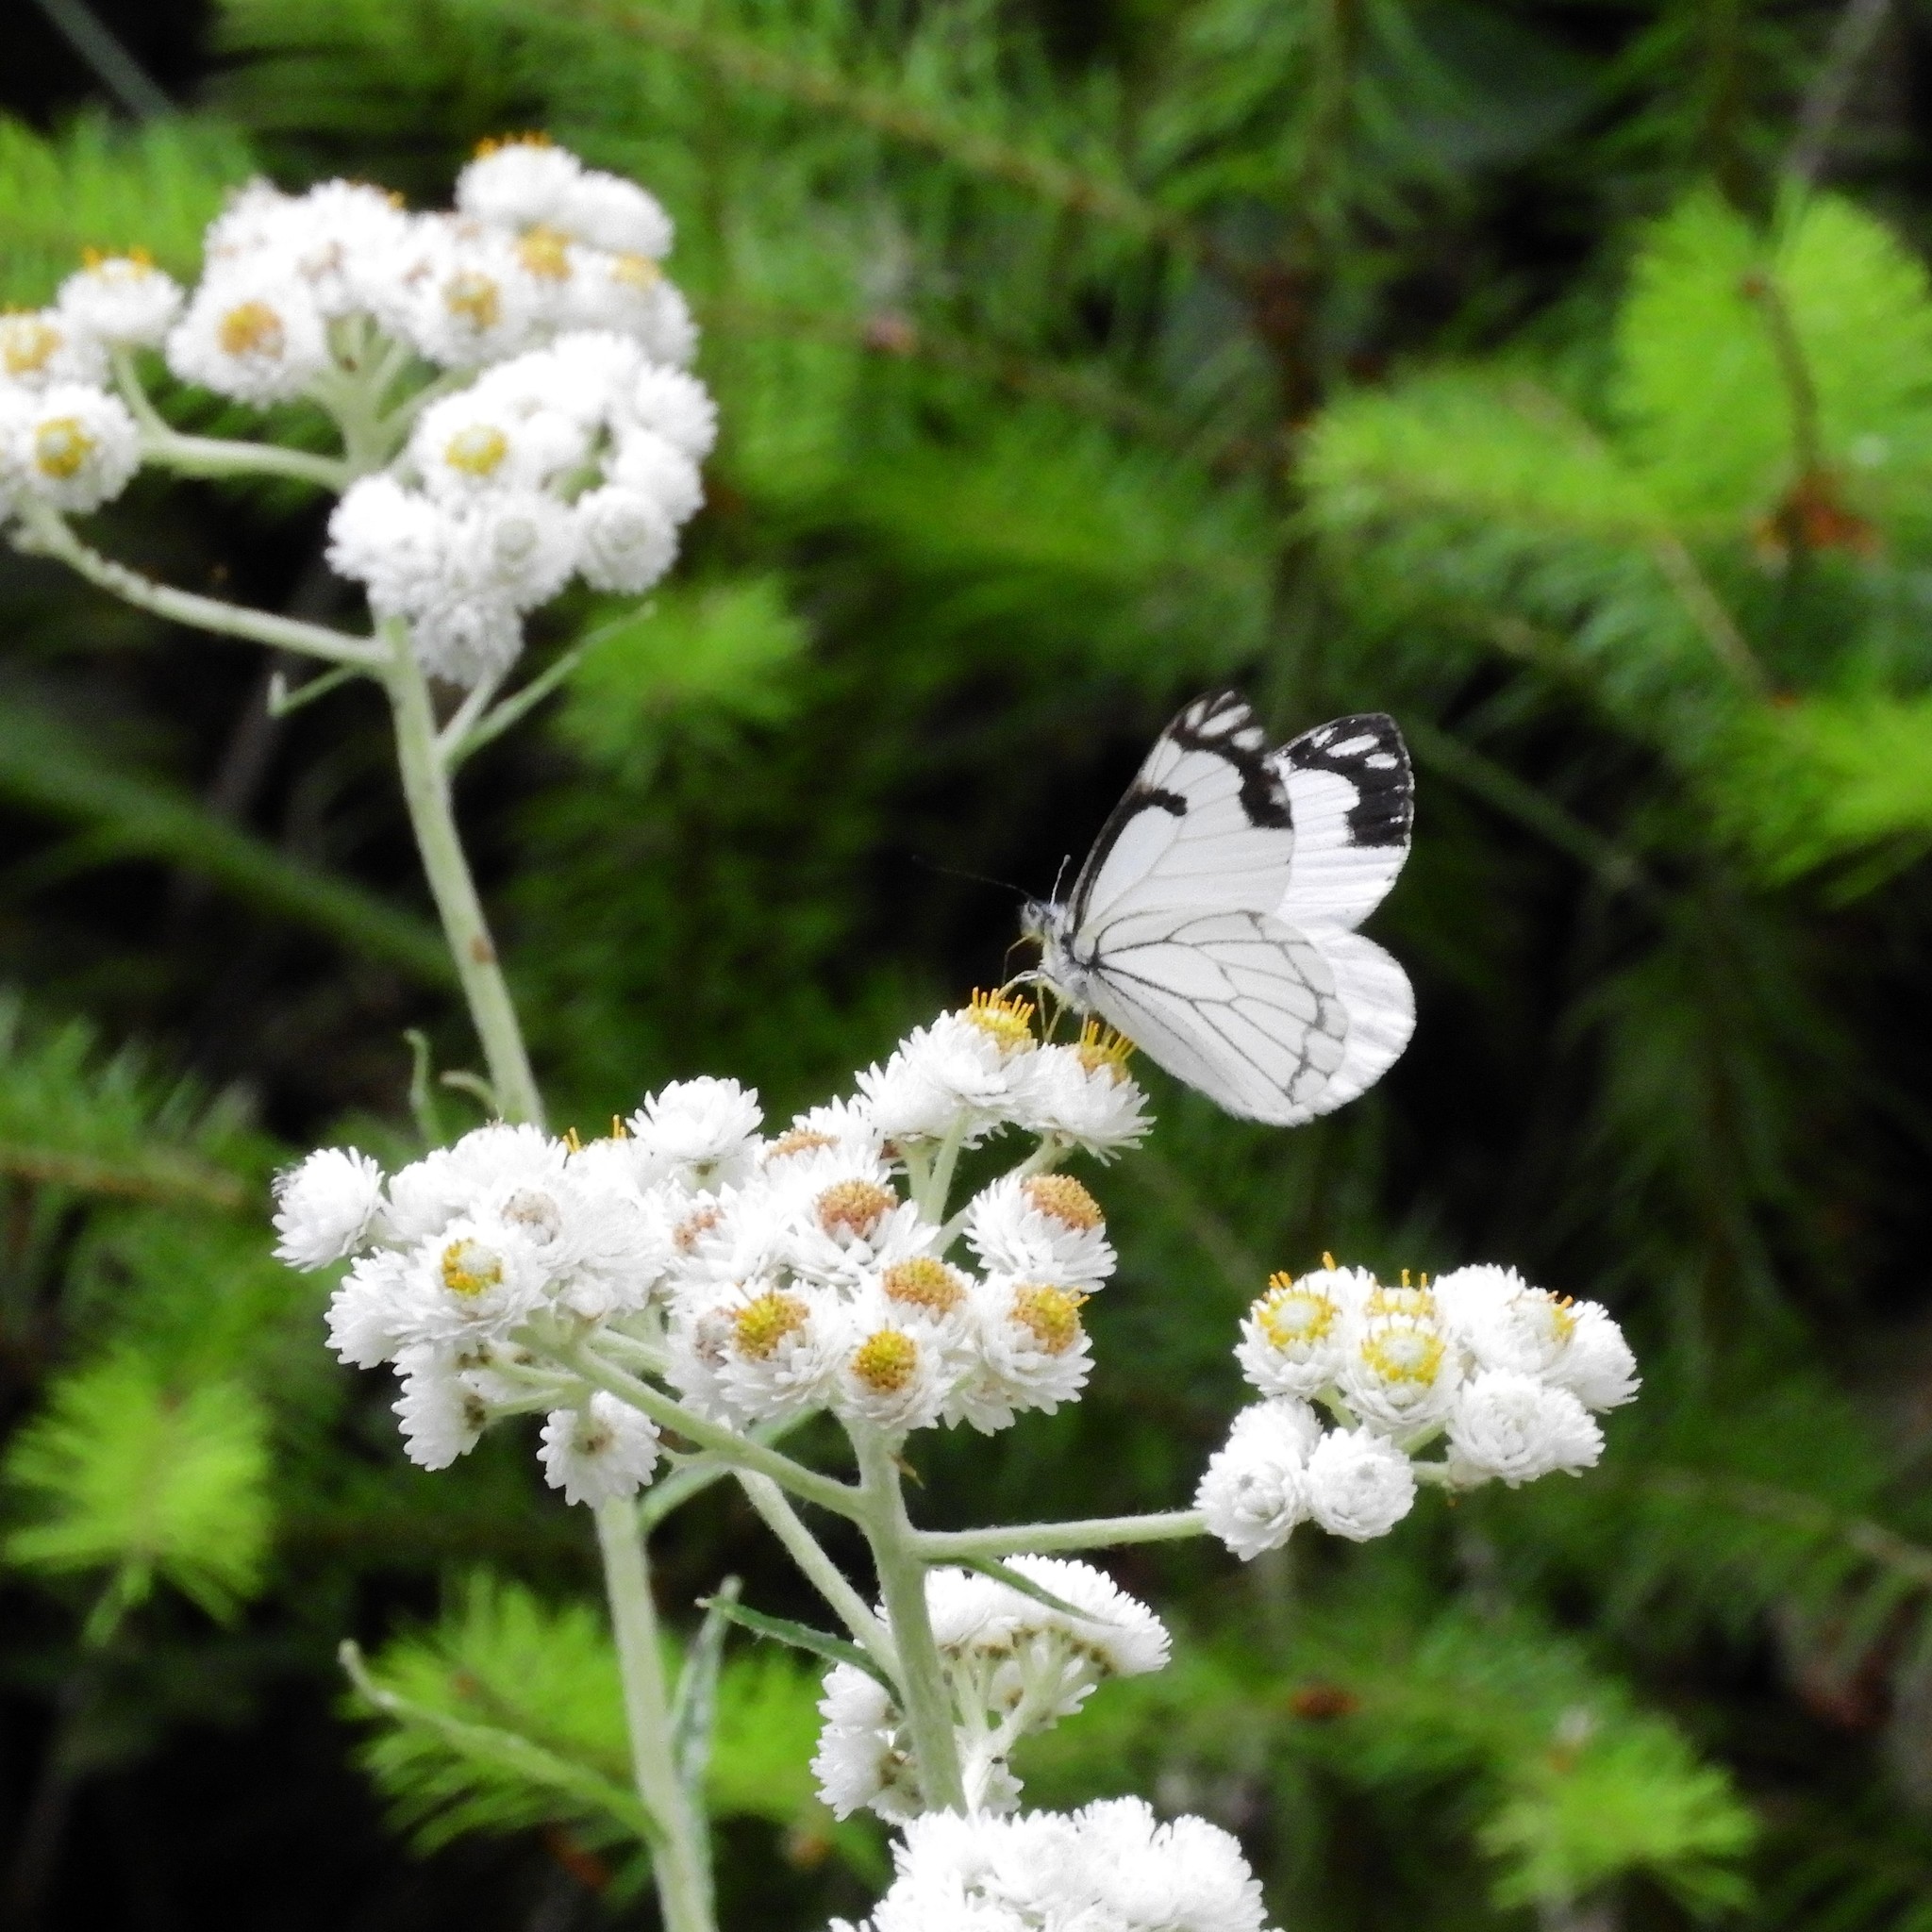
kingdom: Animalia
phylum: Arthropoda
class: Insecta
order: Lepidoptera
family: Pieridae
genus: Neophasia
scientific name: Neophasia menapia
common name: Pine white
